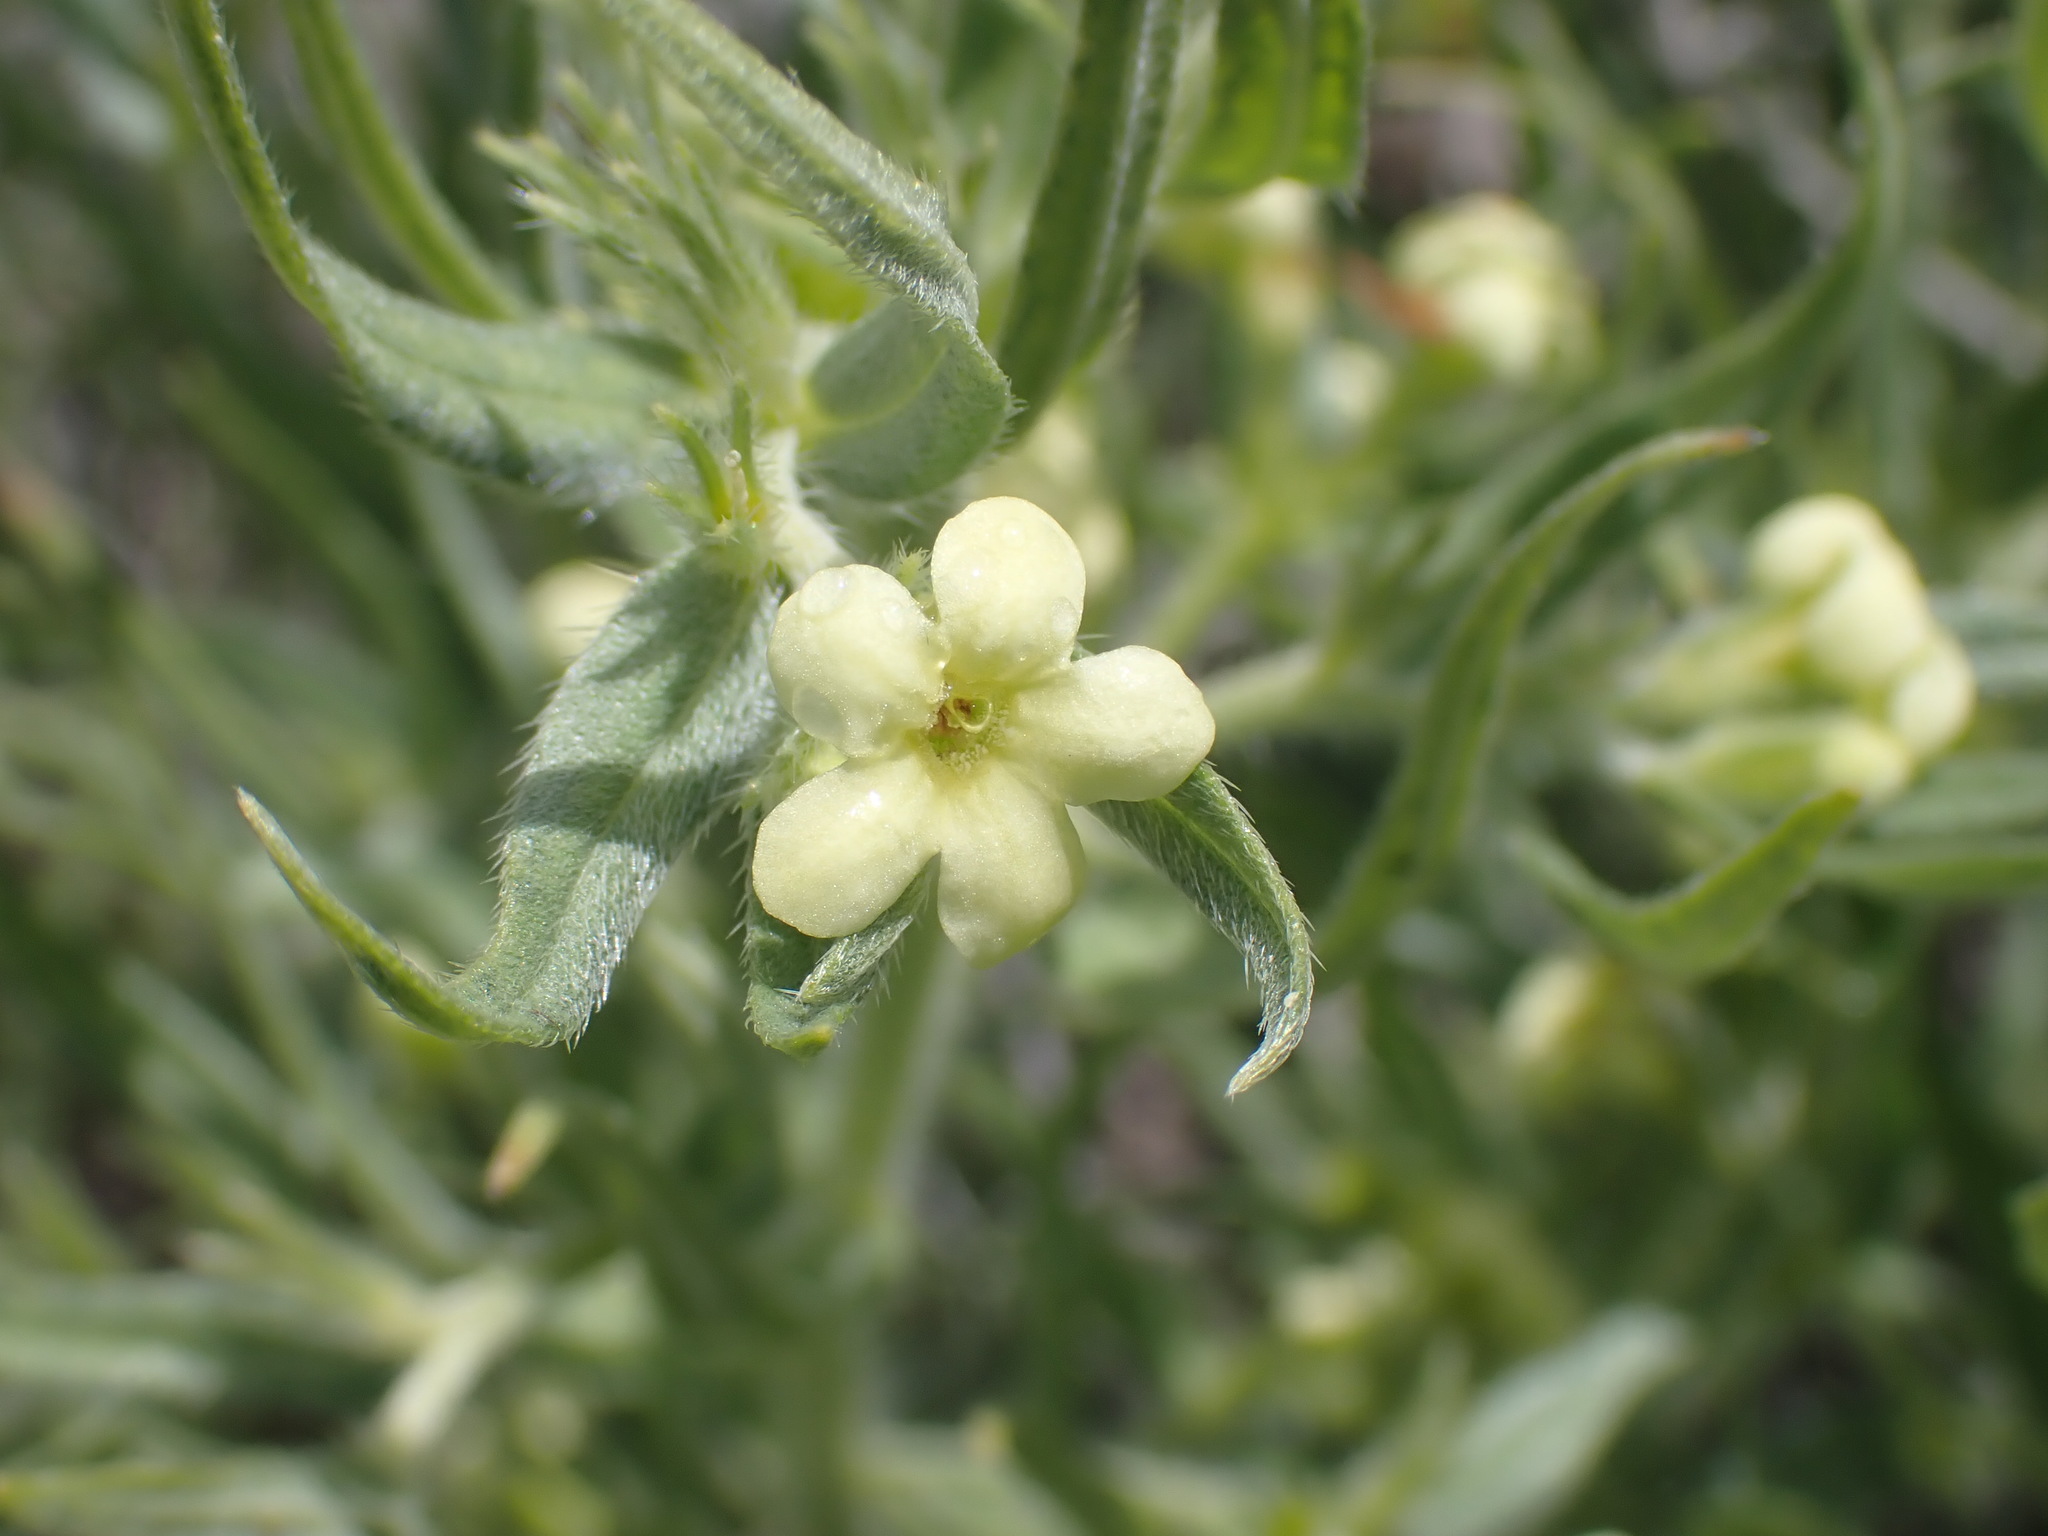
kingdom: Plantae
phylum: Tracheophyta
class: Magnoliopsida
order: Boraginales
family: Boraginaceae
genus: Lithospermum
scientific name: Lithospermum ruderale
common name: Western gromwell
